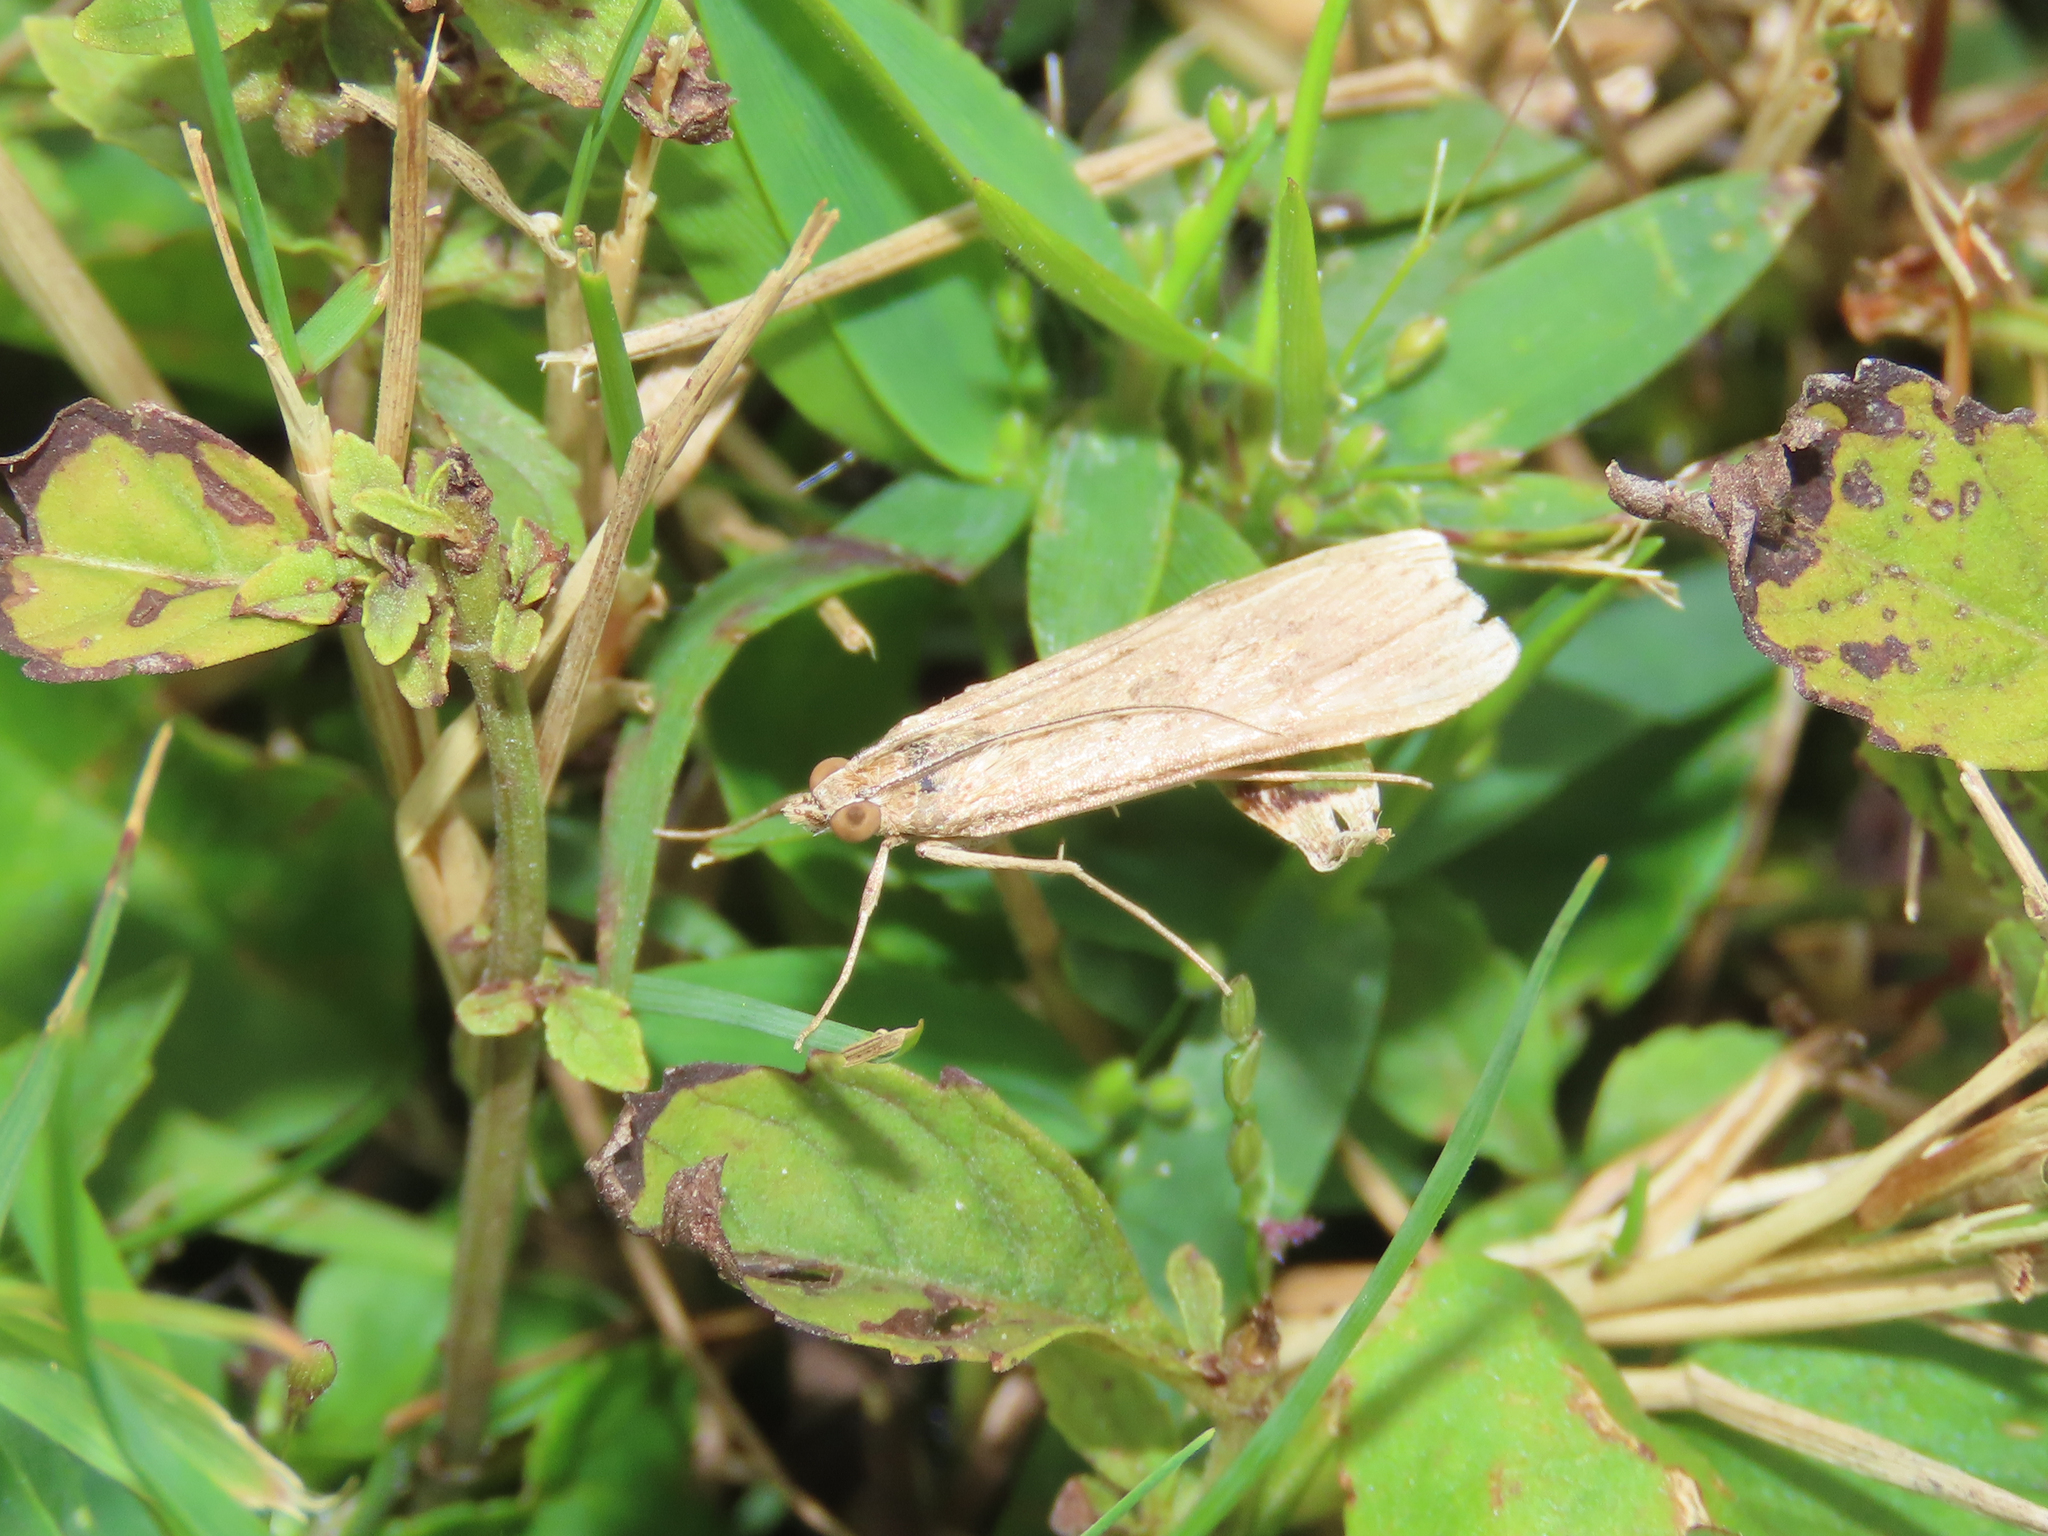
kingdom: Animalia
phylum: Arthropoda
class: Insecta
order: Lepidoptera
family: Crambidae
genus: Nomophila
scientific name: Nomophila nearctica
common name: American rush veneer
